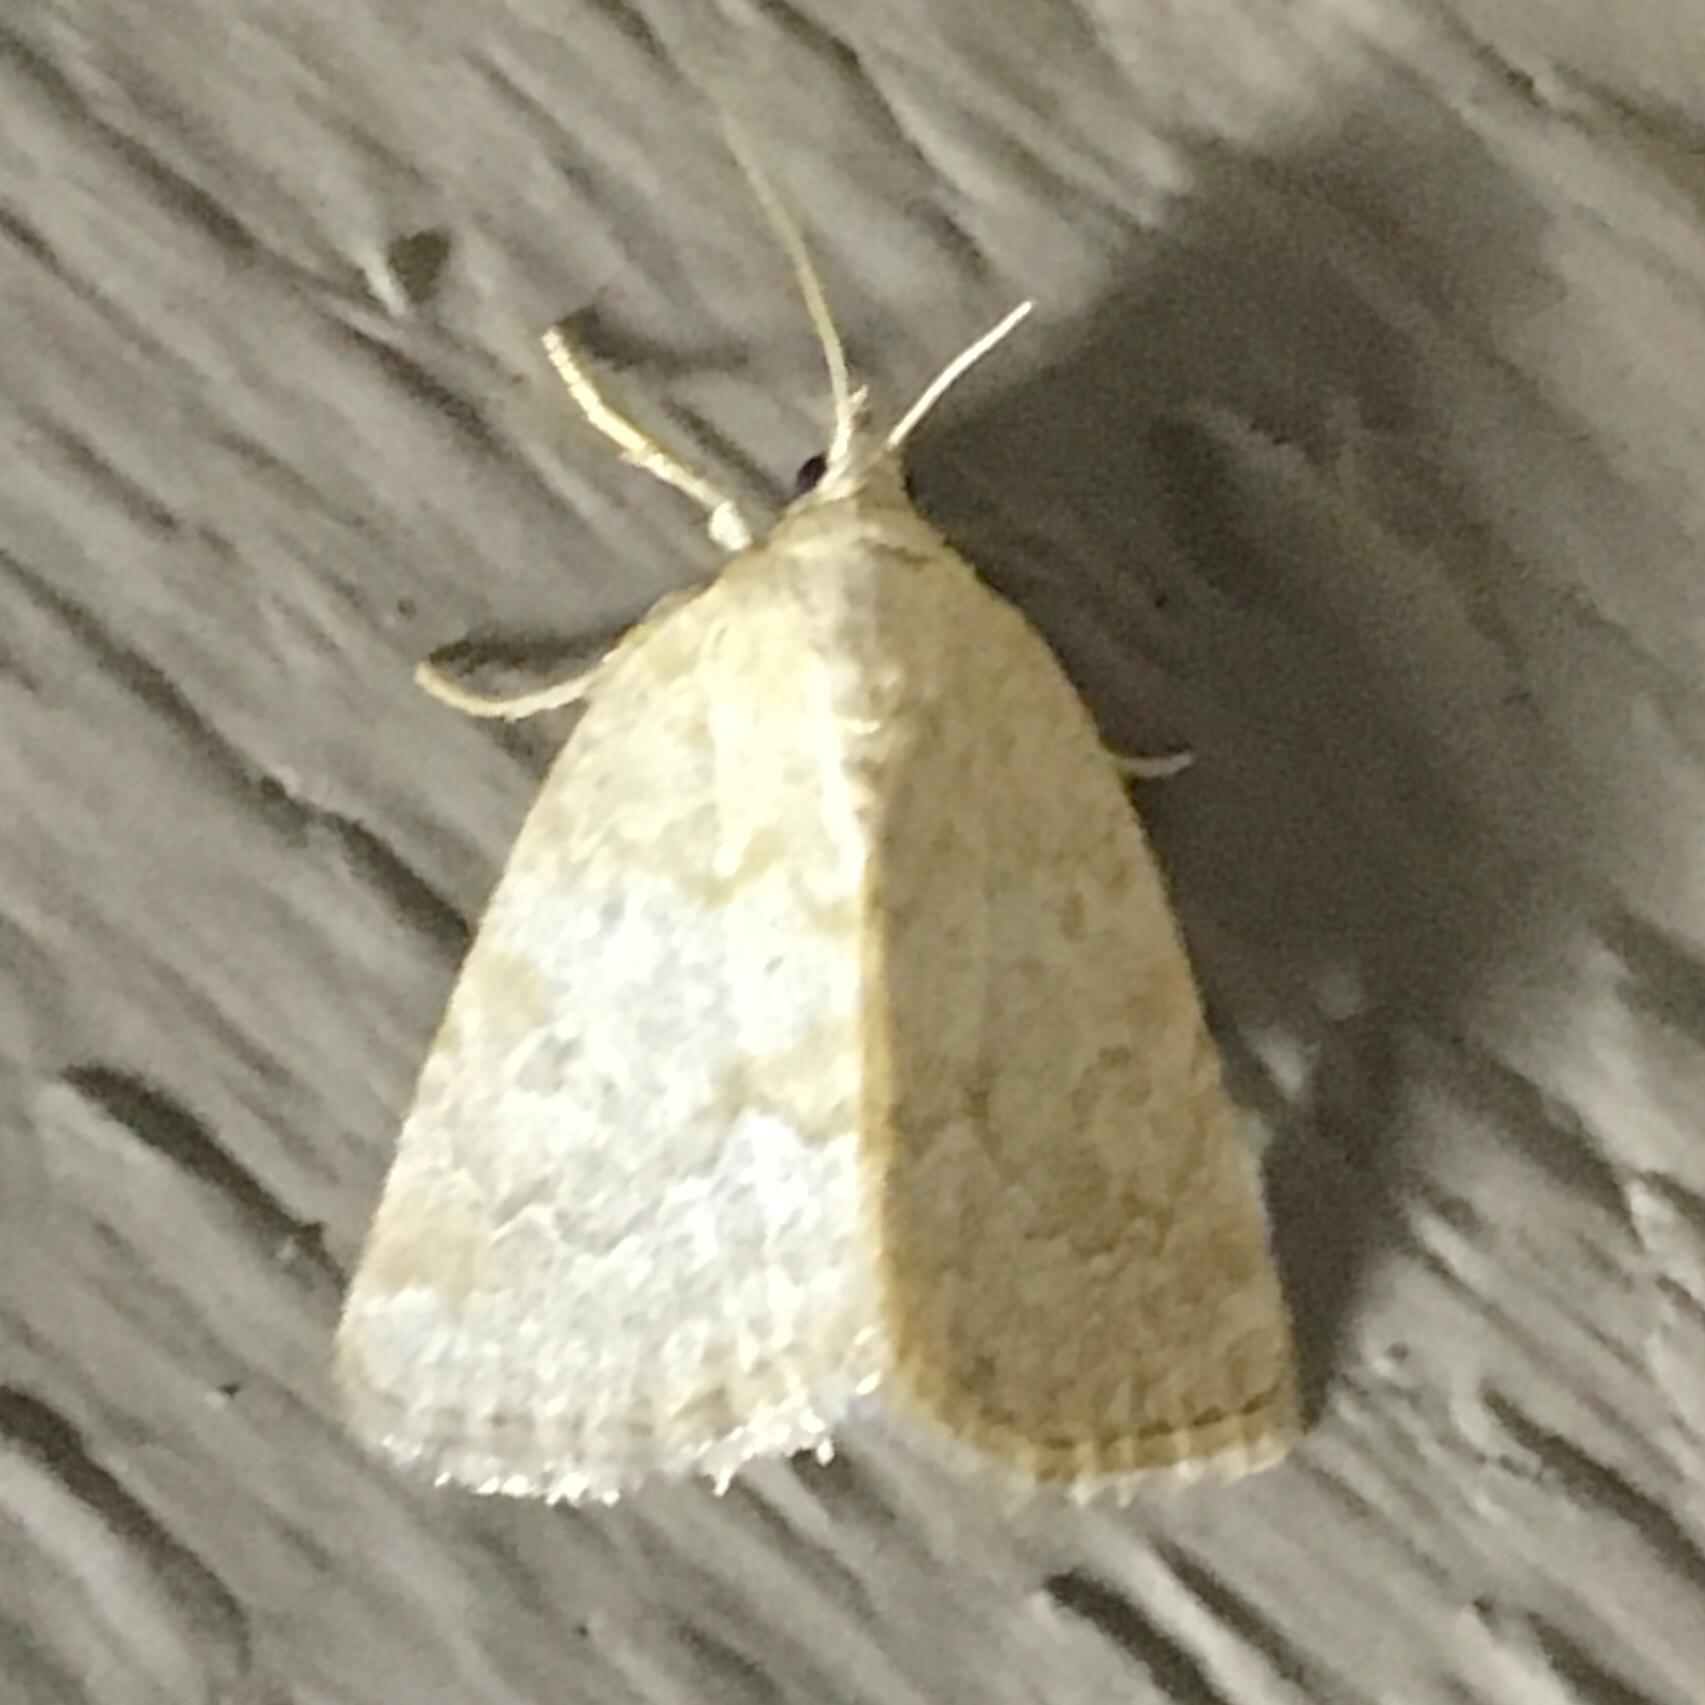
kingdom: Animalia
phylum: Arthropoda
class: Insecta
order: Lepidoptera
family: Noctuidae
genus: Protodeltote
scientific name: Protodeltote albidula
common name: Pale glyph
